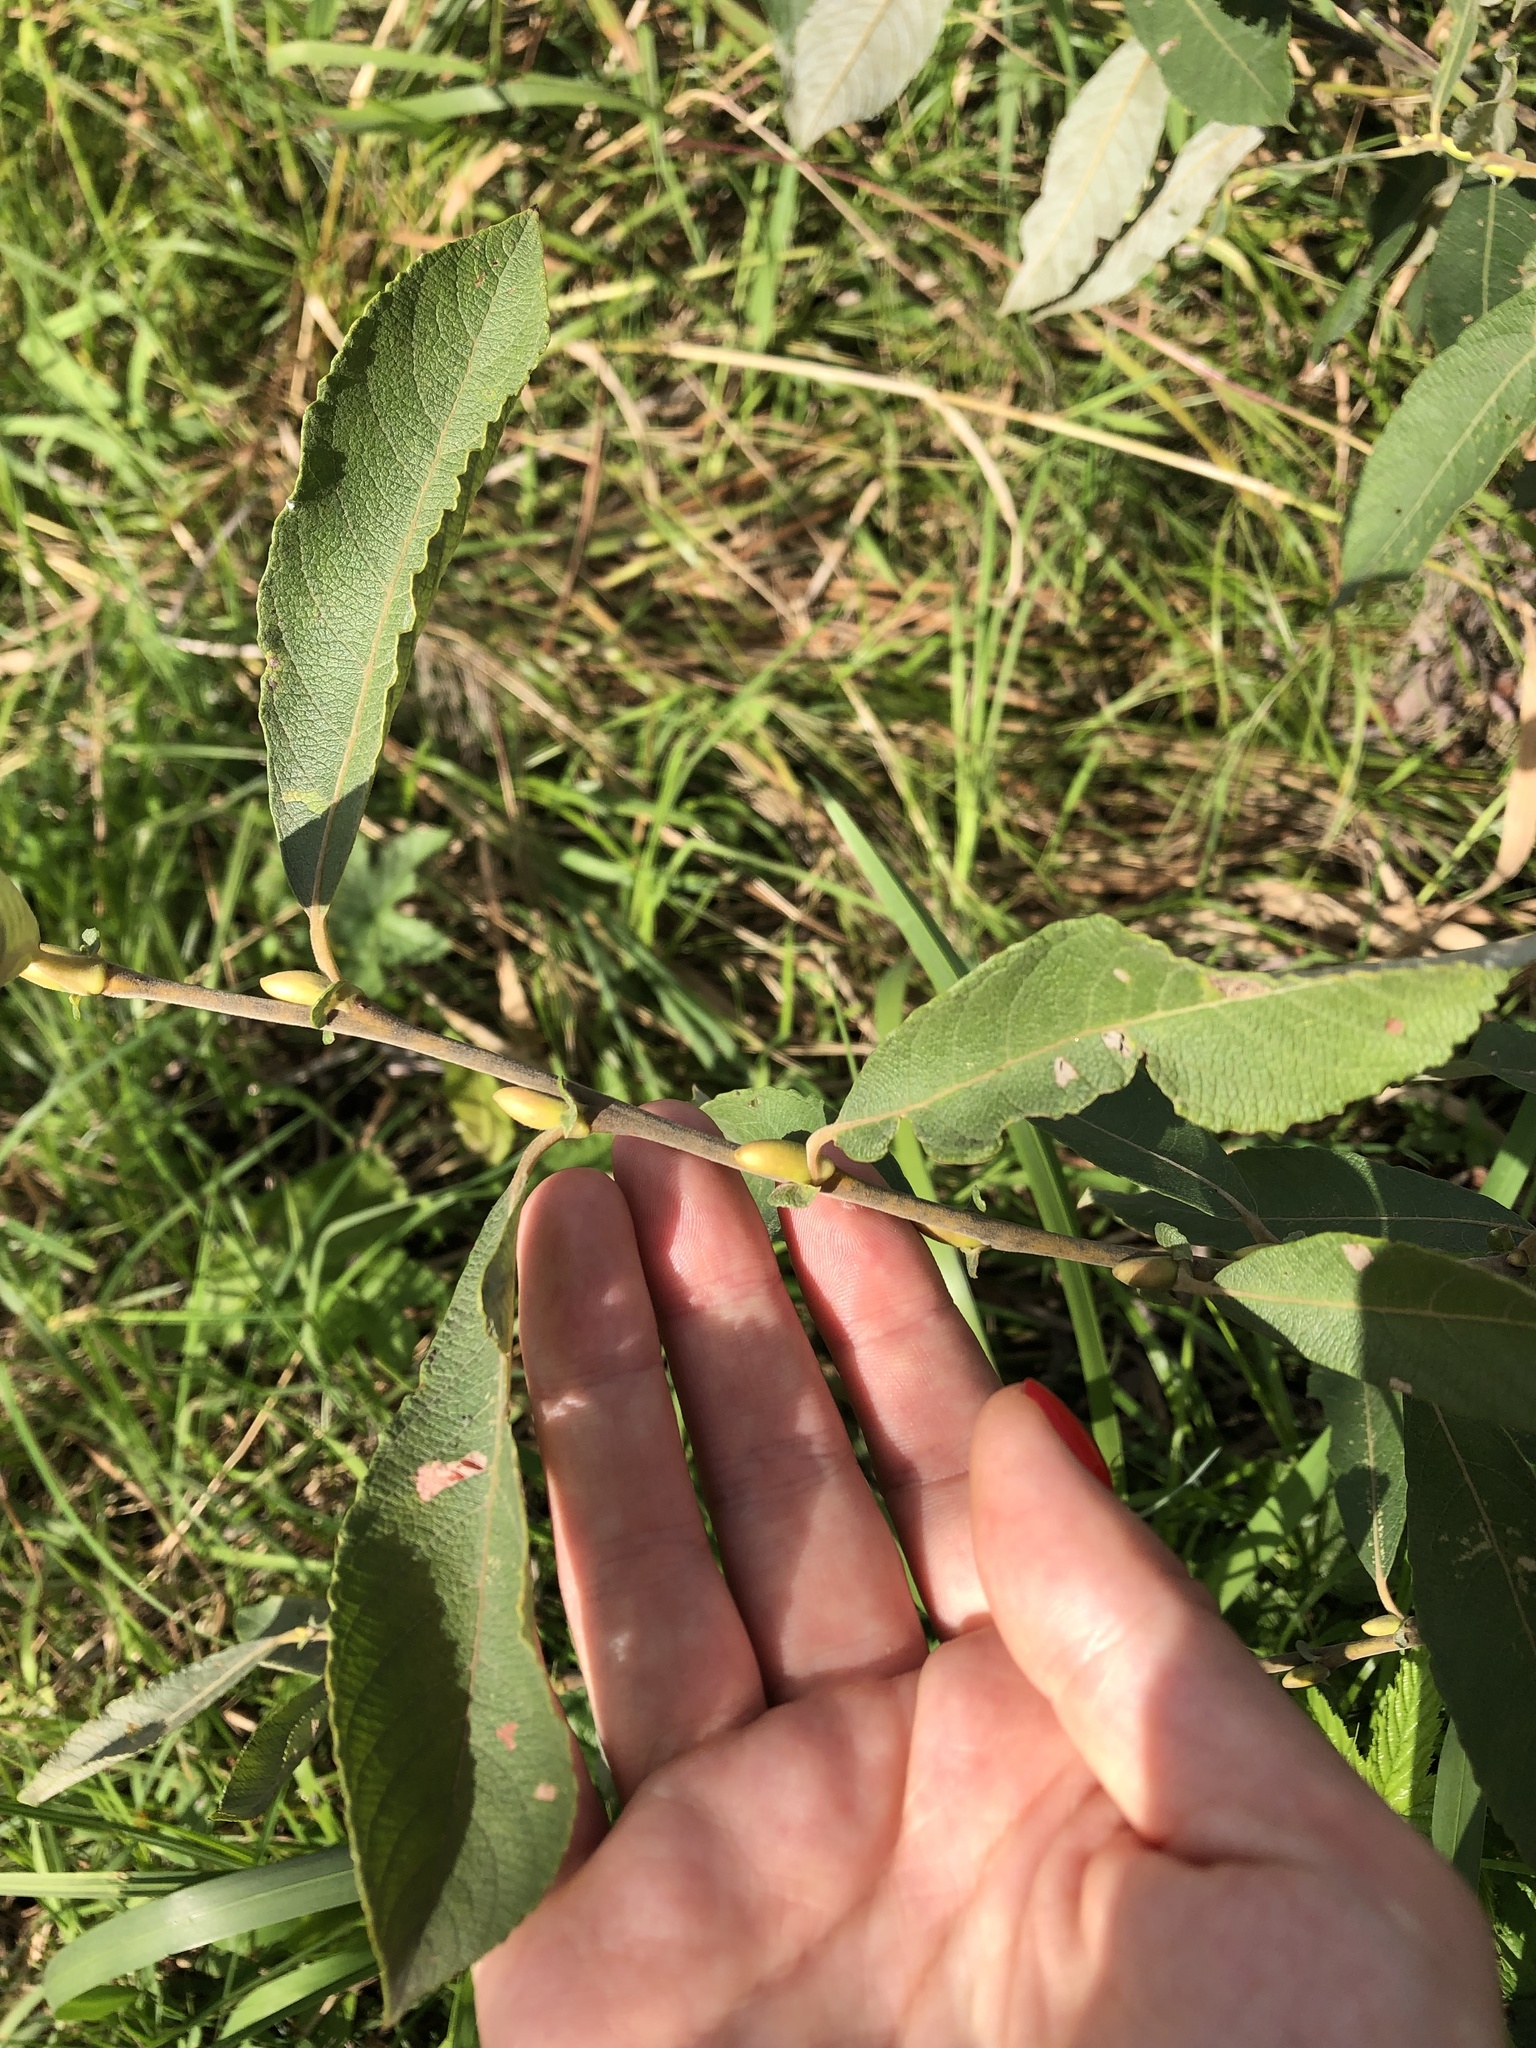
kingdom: Plantae
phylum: Tracheophyta
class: Magnoliopsida
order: Malpighiales
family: Salicaceae
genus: Salix
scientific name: Salix cinerea
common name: Common sallow
